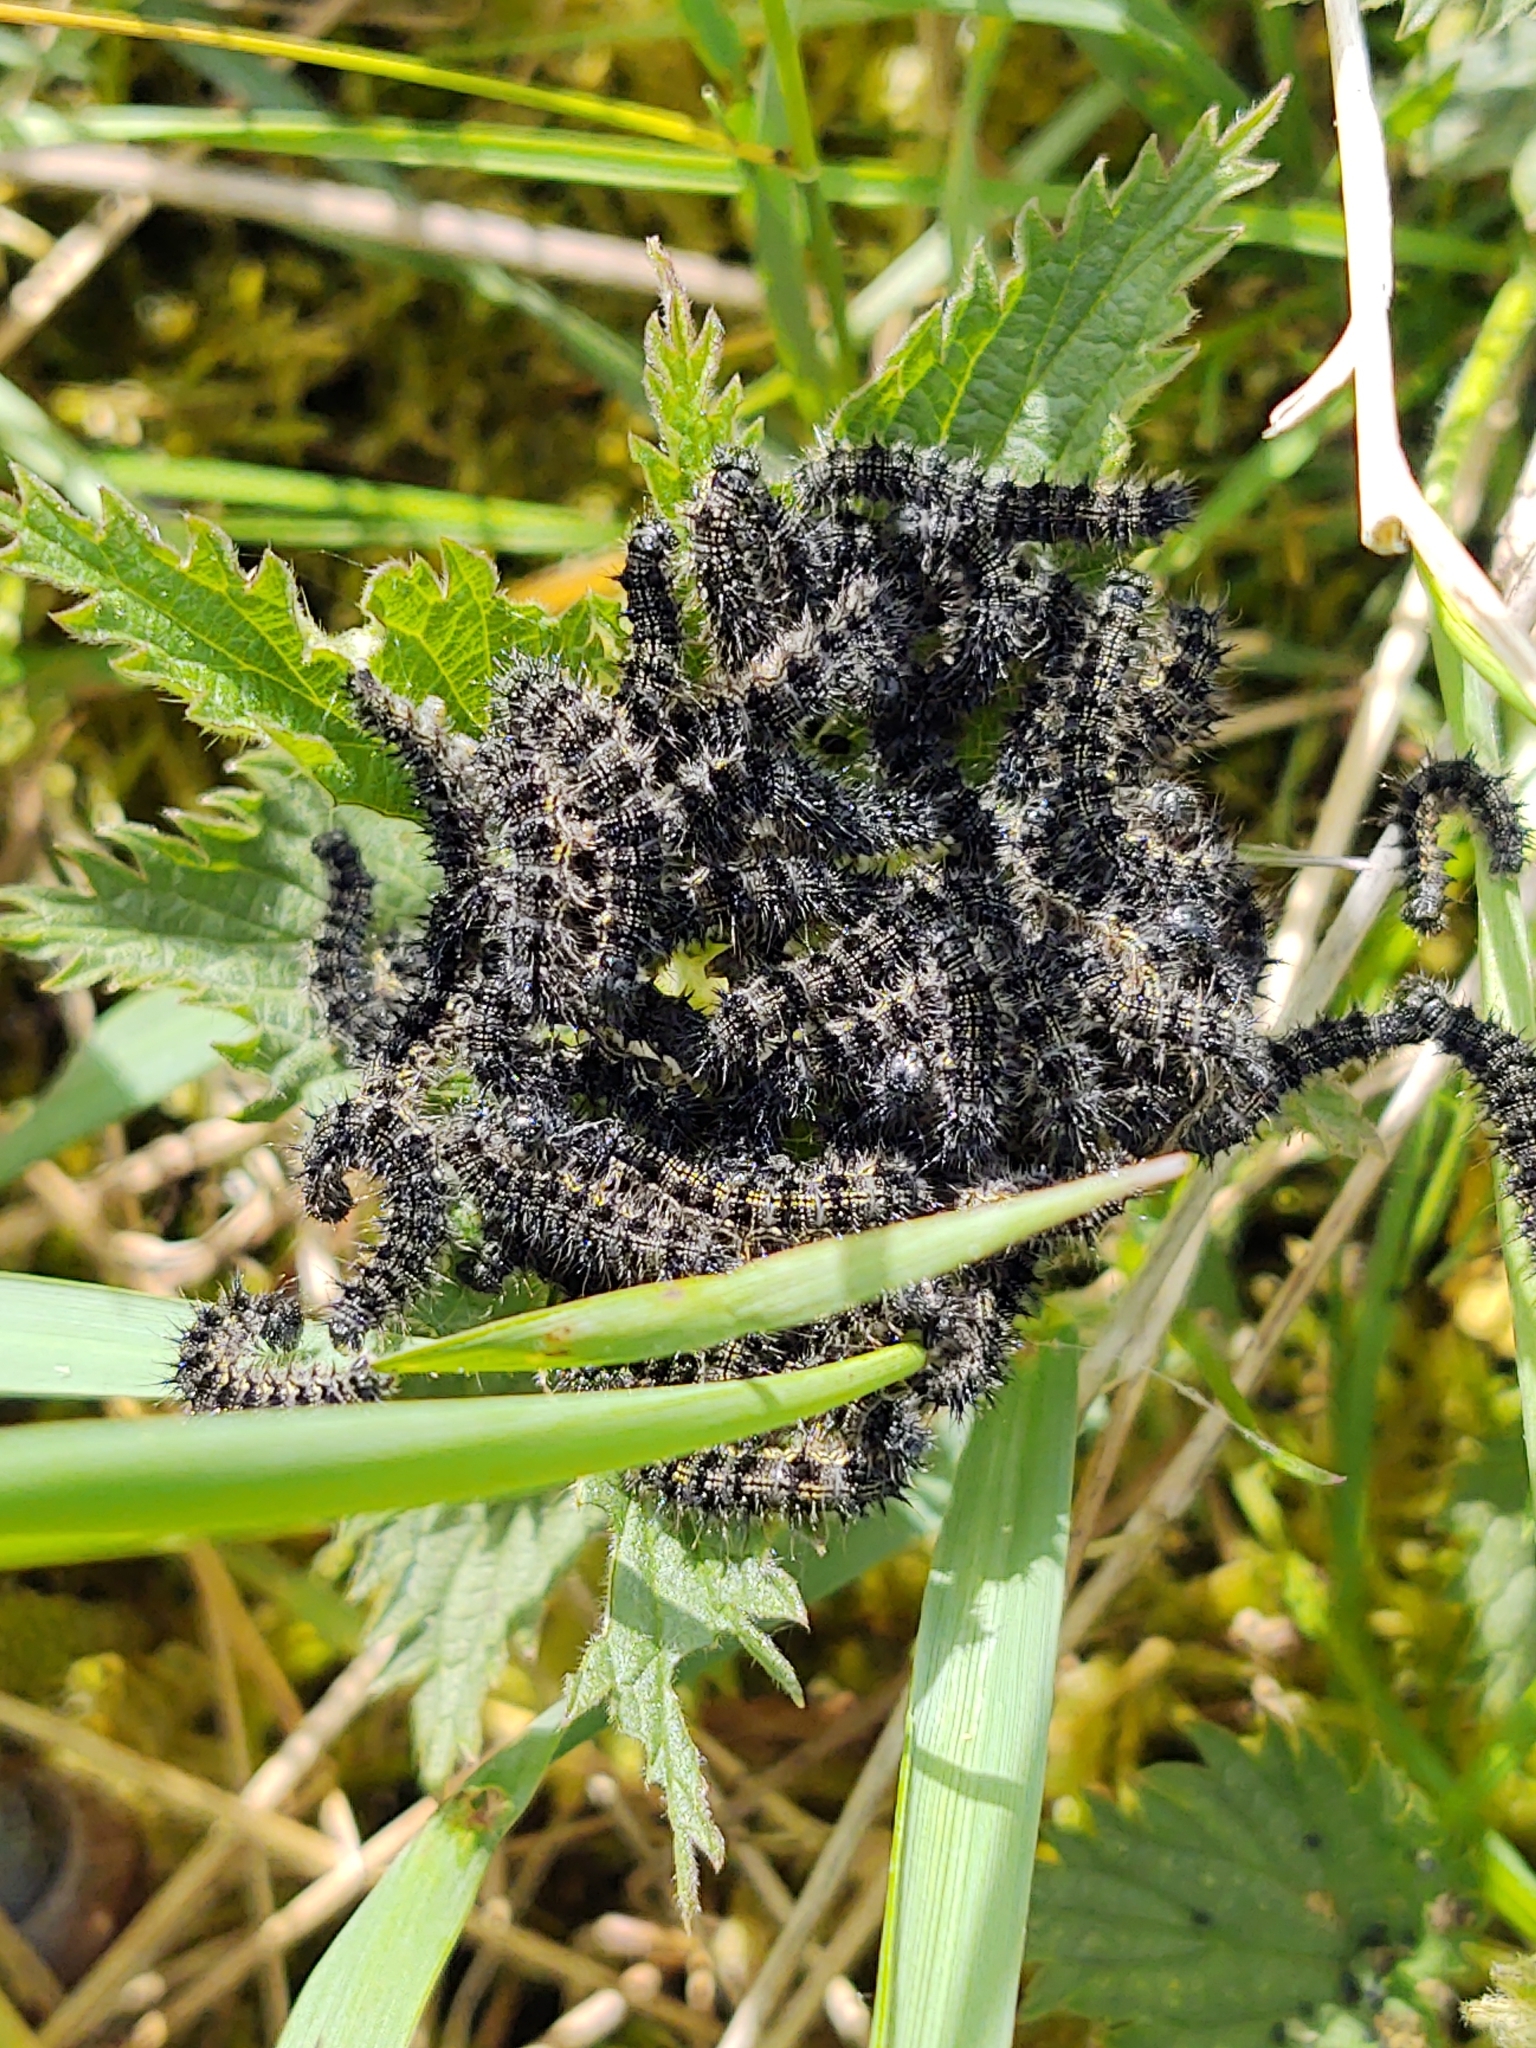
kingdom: Animalia
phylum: Arthropoda
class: Insecta
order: Lepidoptera
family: Nymphalidae
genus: Aglais
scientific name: Aglais urticae
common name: Small tortoiseshell
